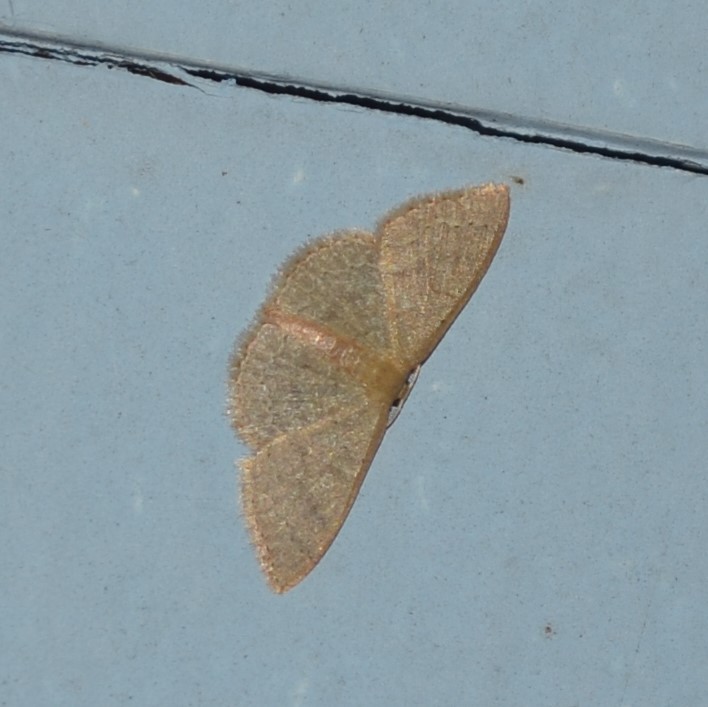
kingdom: Animalia
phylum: Arthropoda
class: Insecta
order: Lepidoptera
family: Geometridae
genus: Pleuroprucha
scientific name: Pleuroprucha insulsaria
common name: Common tan wave
